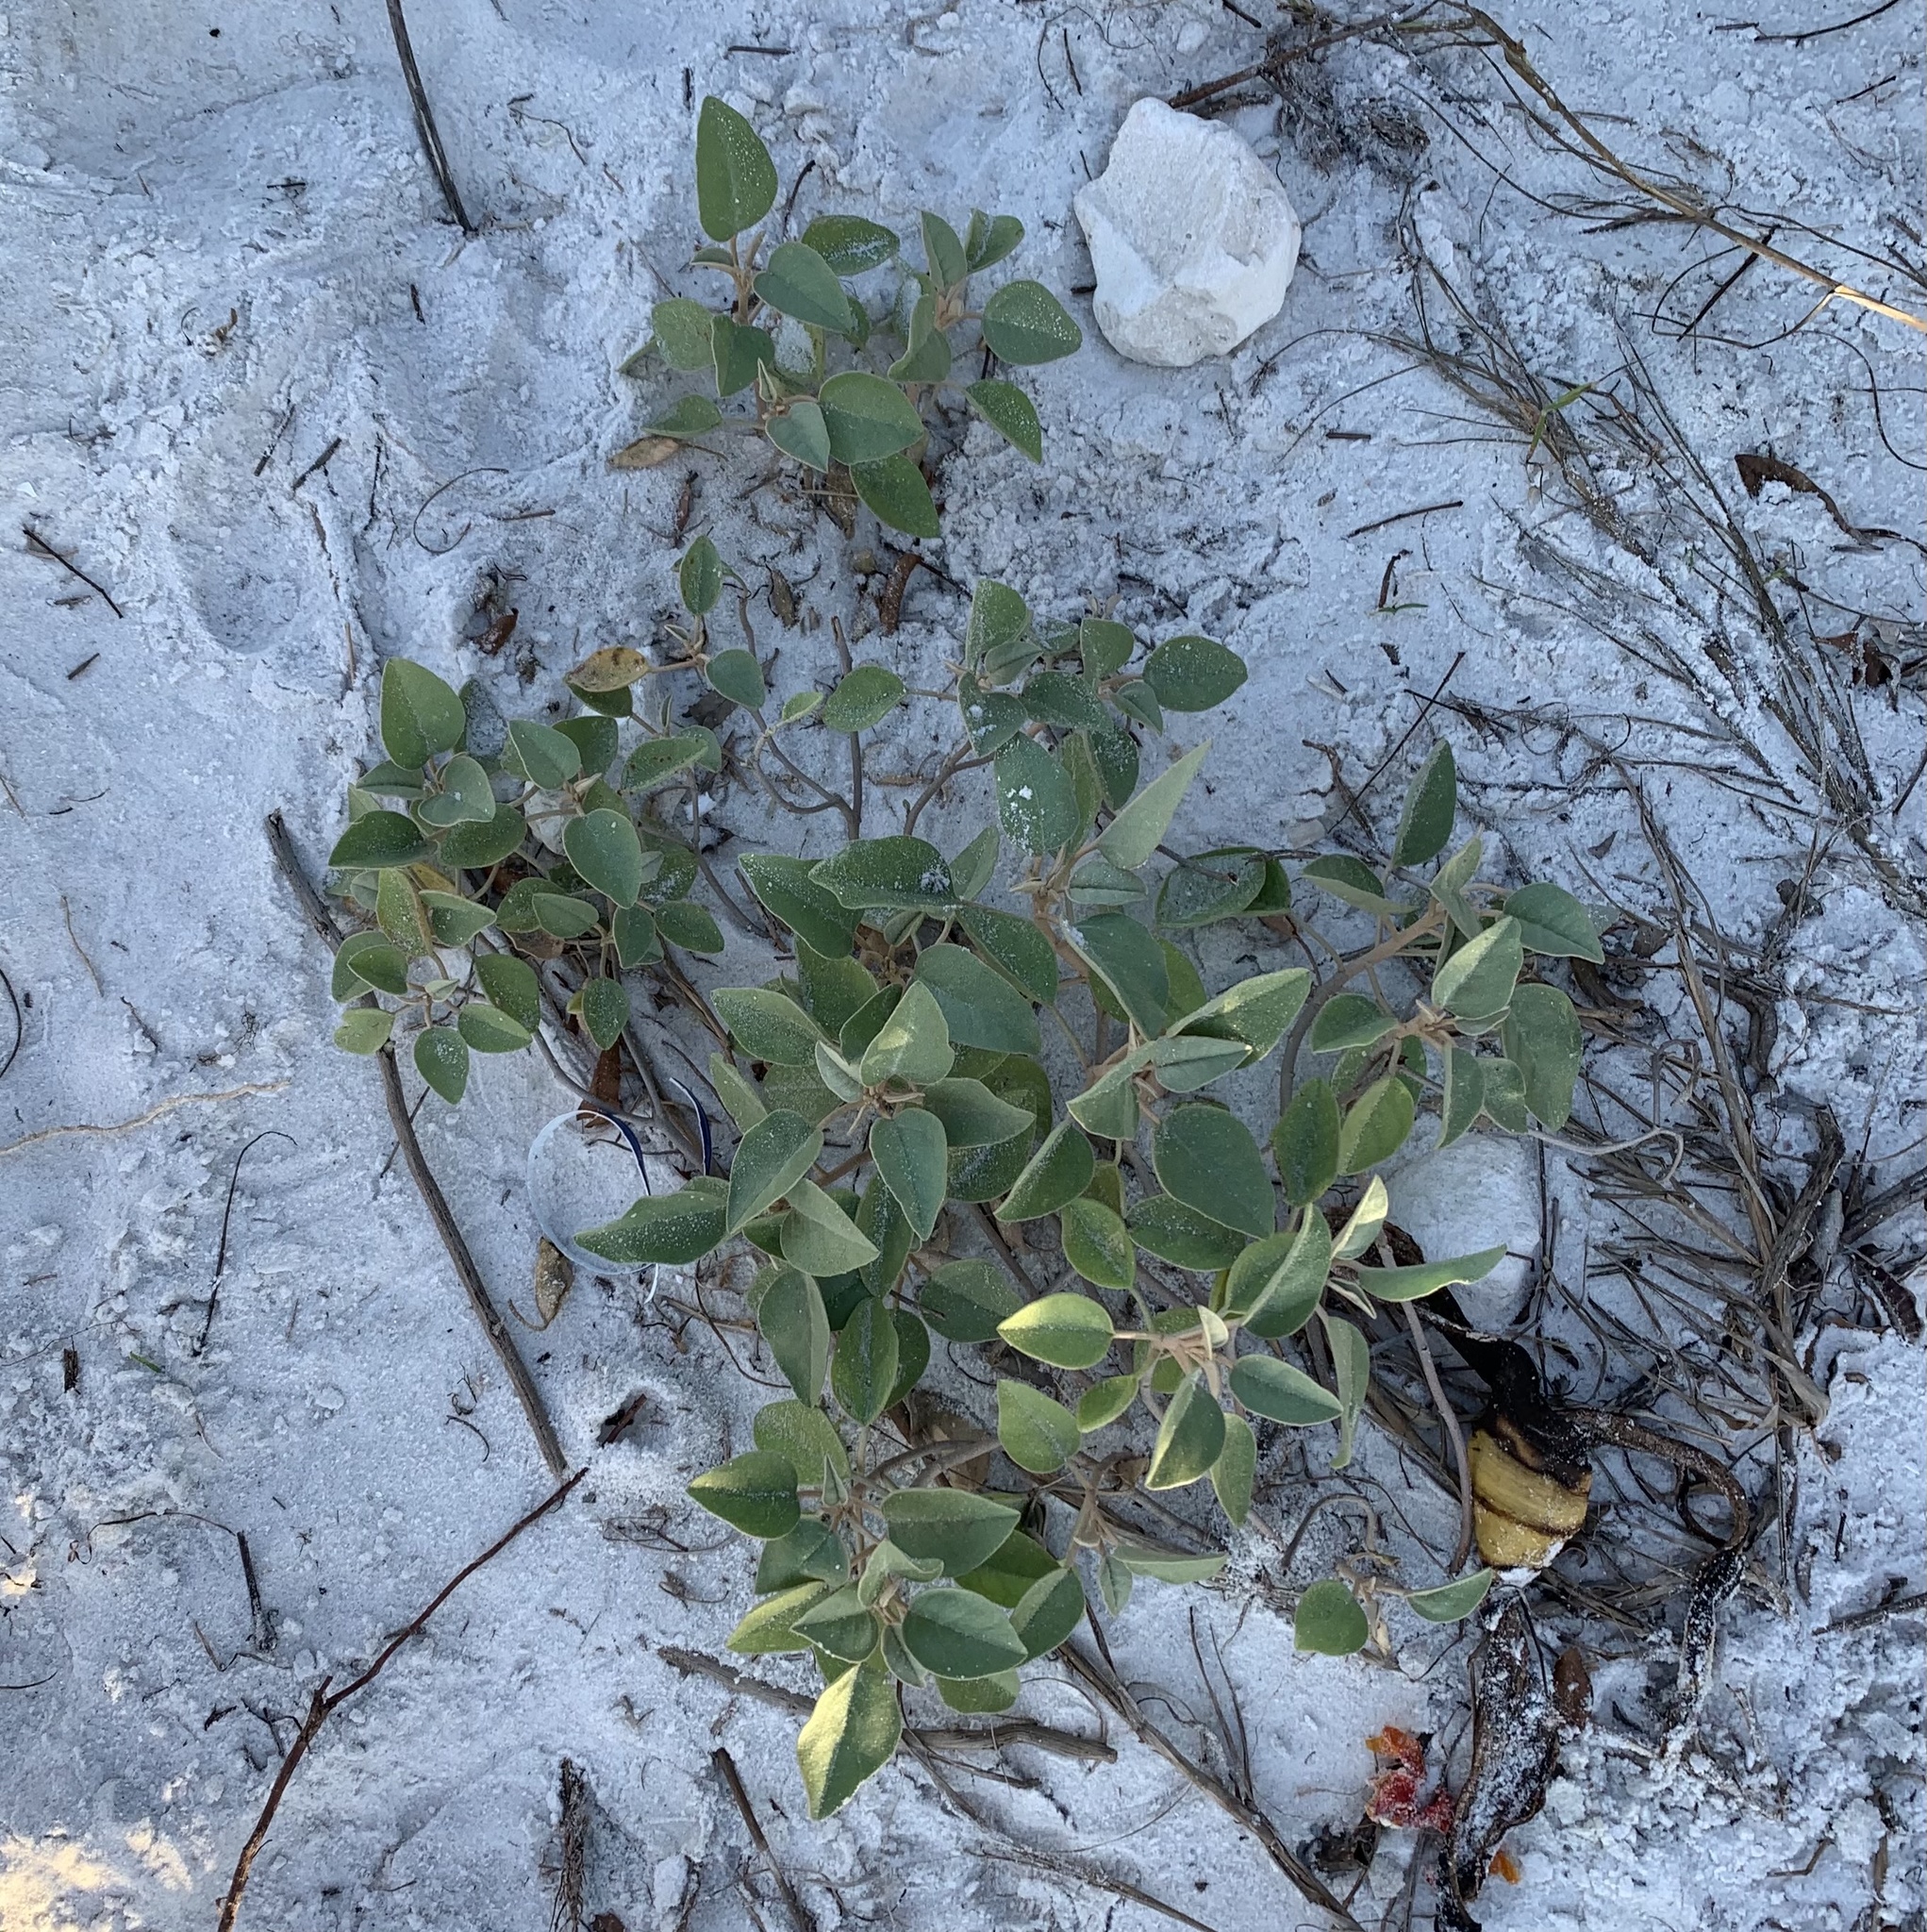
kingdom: Plantae
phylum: Tracheophyta
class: Magnoliopsida
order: Malpighiales
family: Euphorbiaceae
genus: Croton
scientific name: Croton punctatus
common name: Beach-tea
